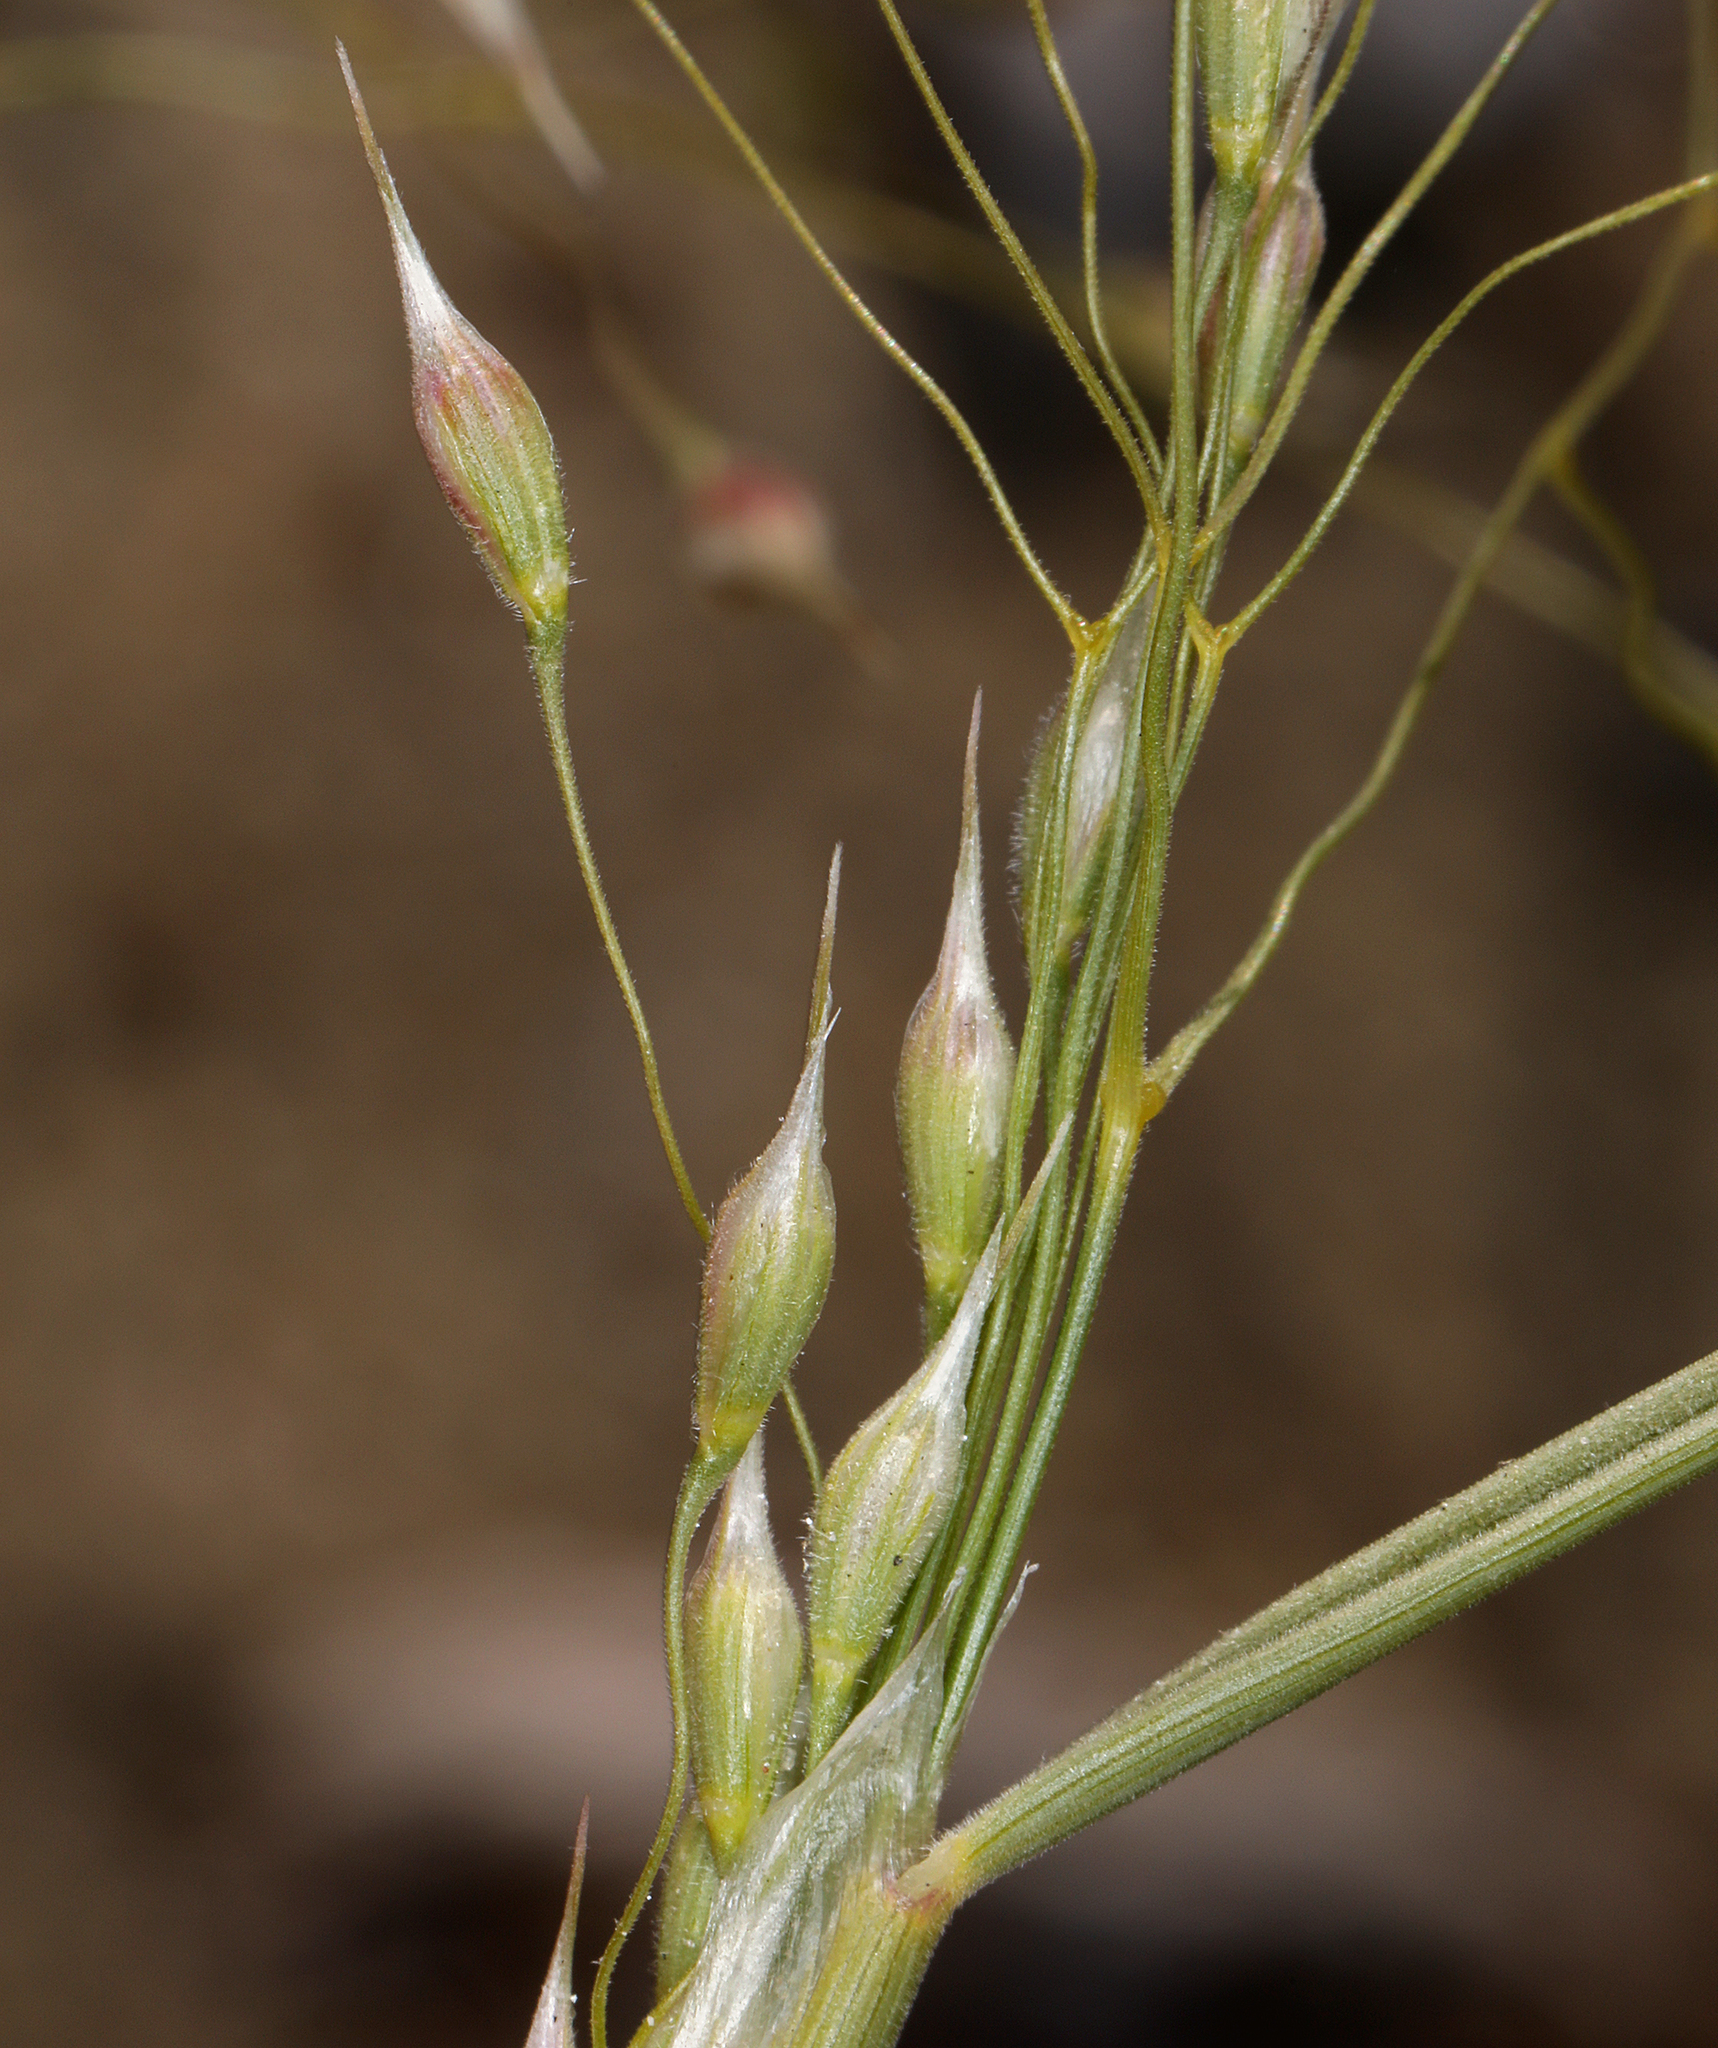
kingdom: Plantae
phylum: Tracheophyta
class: Liliopsida
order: Poales
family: Poaceae
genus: Eriocoma
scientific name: Eriocoma hymenoides
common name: Indian mountain ricegrass
